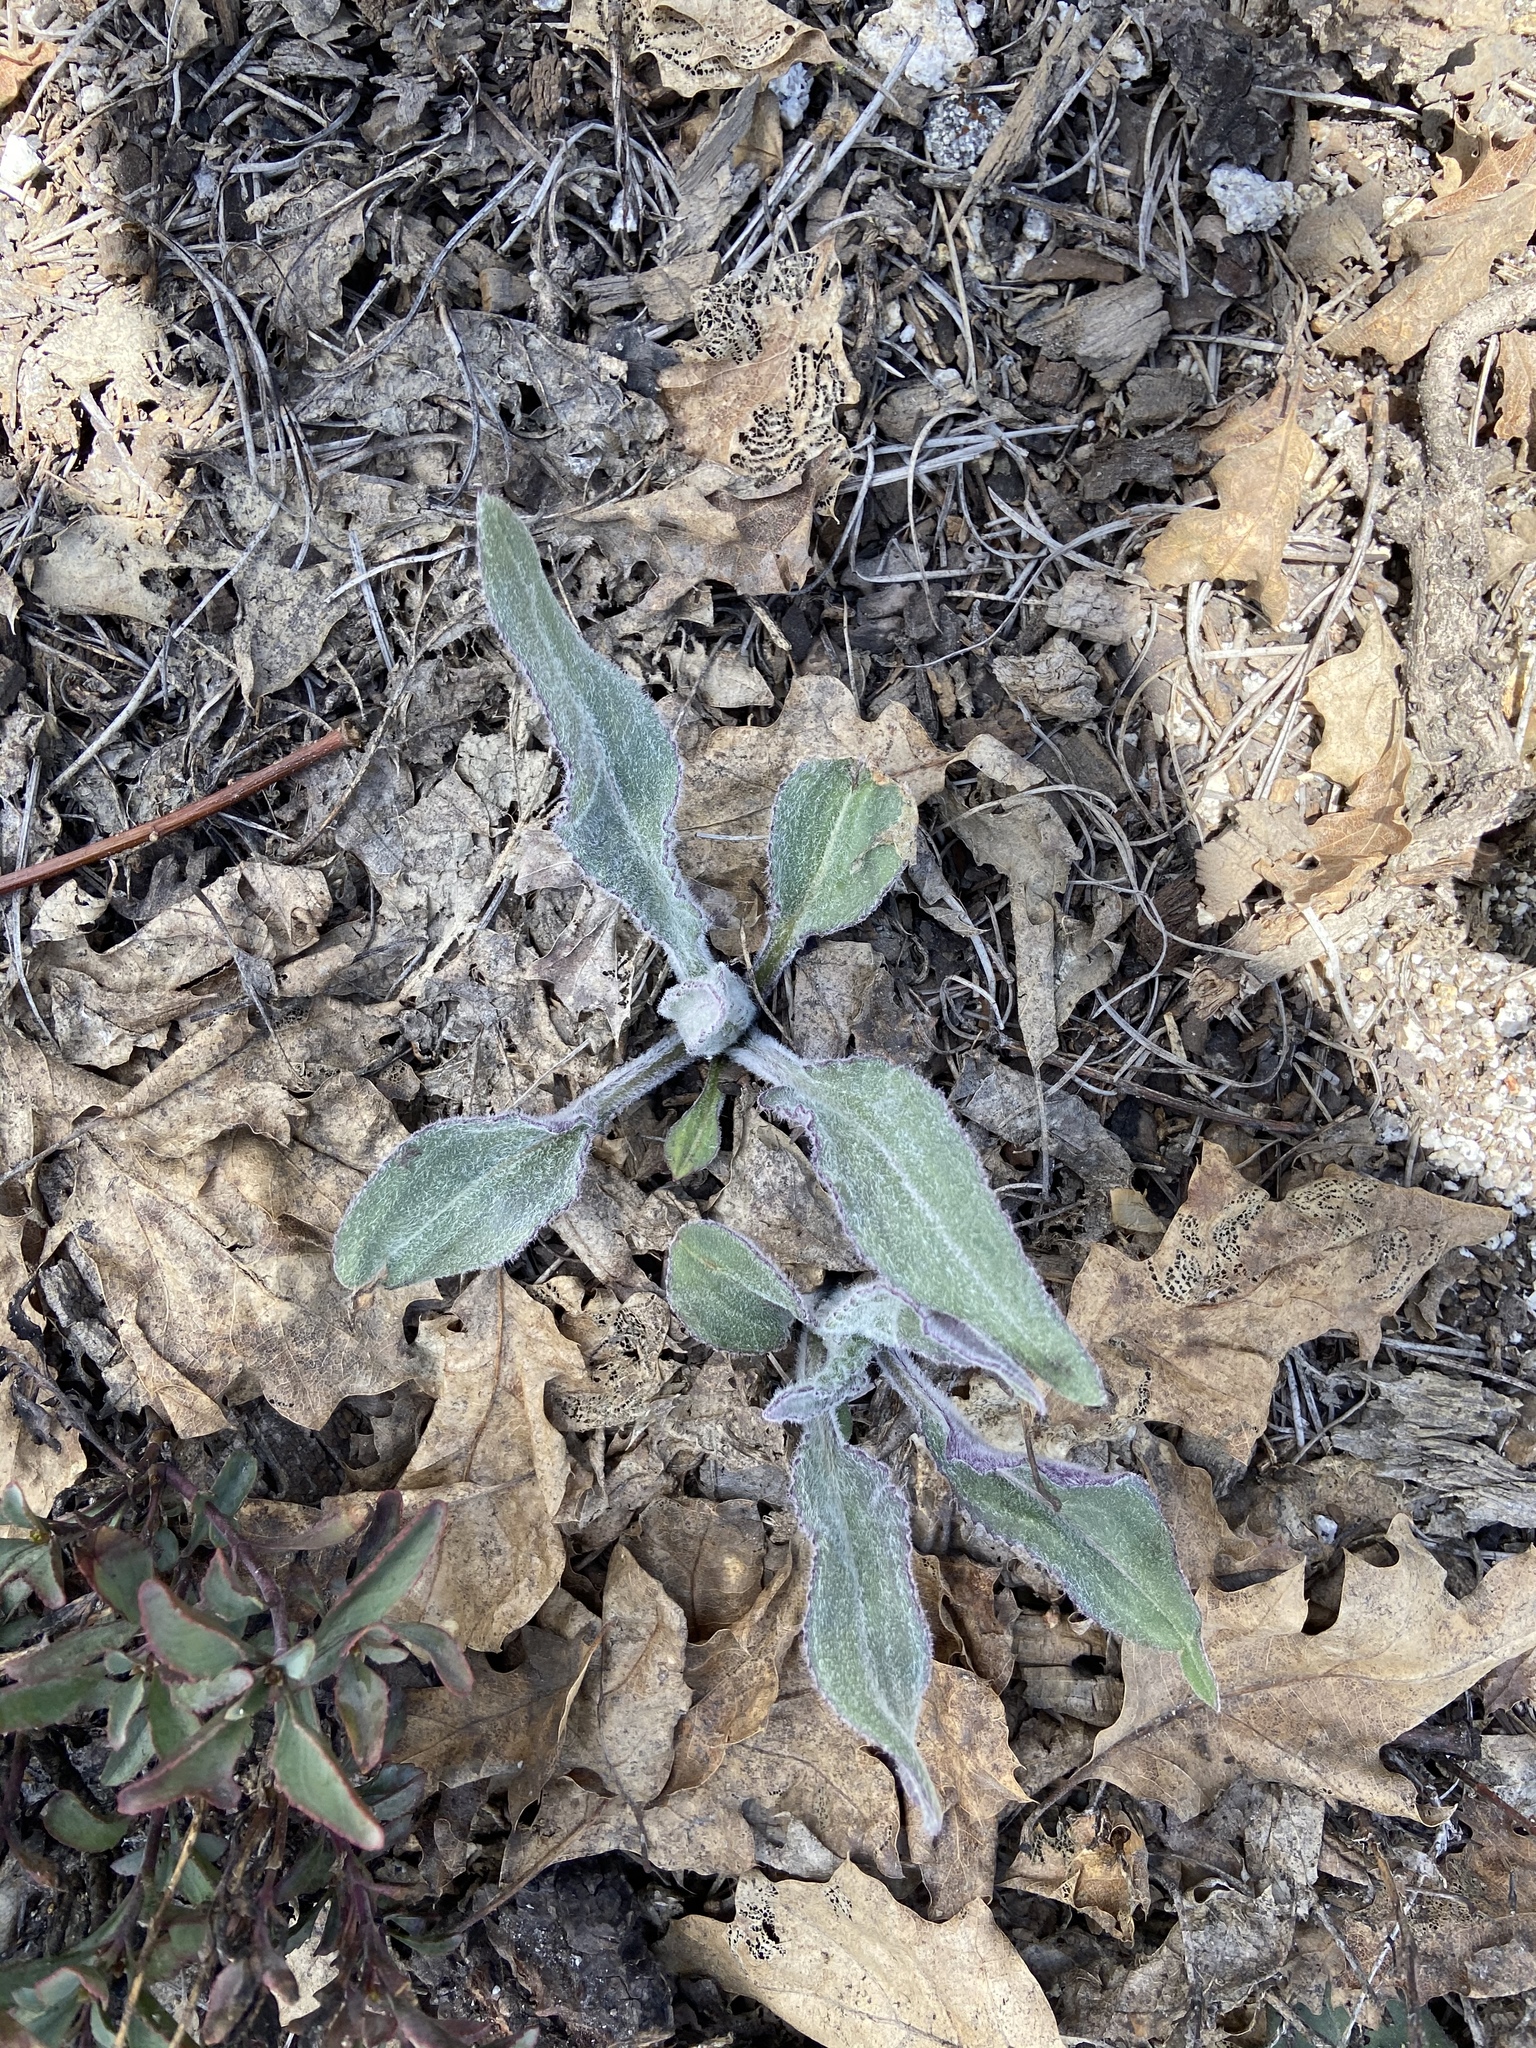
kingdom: Plantae
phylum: Tracheophyta
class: Magnoliopsida
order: Asterales
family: Asteraceae
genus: Senecio
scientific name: Senecio aronicoides
